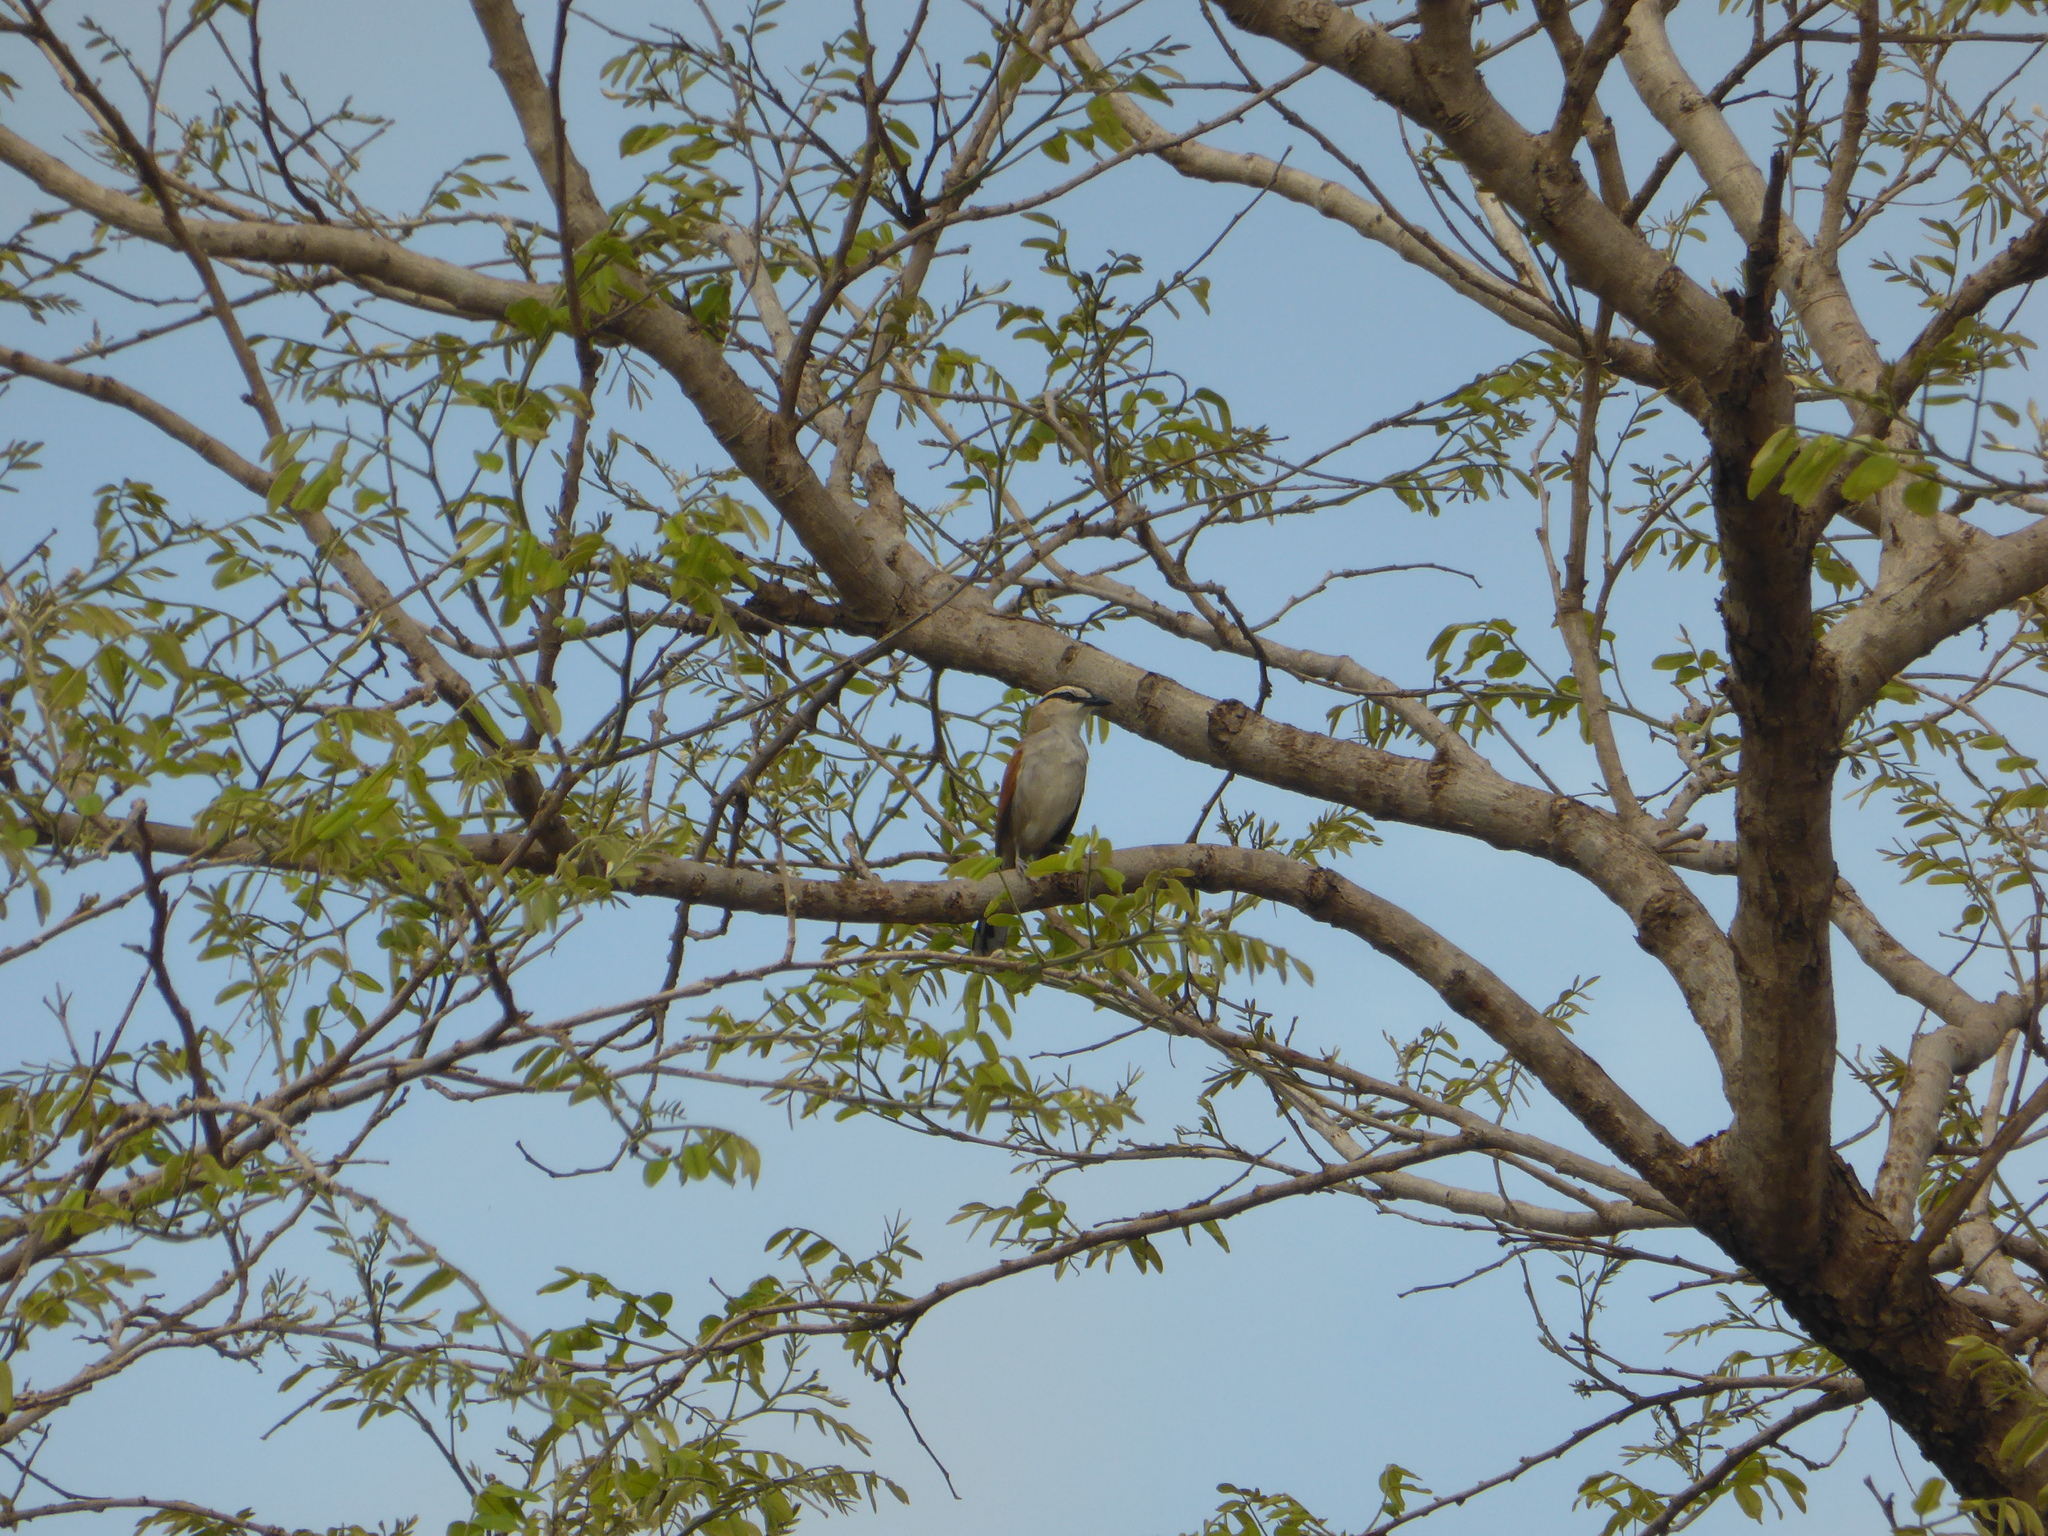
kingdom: Animalia
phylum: Chordata
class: Aves
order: Passeriformes
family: Malaconotidae
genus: Tchagra
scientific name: Tchagra senegalus
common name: Black-crowned tchagra
